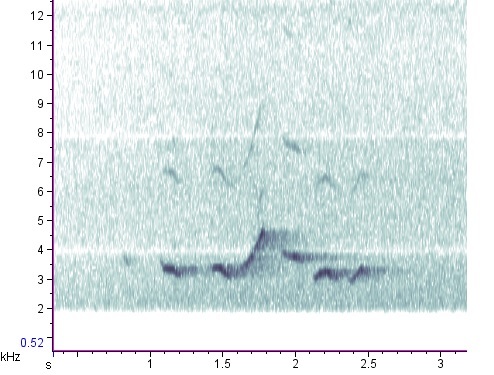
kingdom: Animalia
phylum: Chordata
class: Aves
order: Passeriformes
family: Passerellidae
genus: Passerella
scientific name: Passerella iliaca
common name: Fox sparrow
